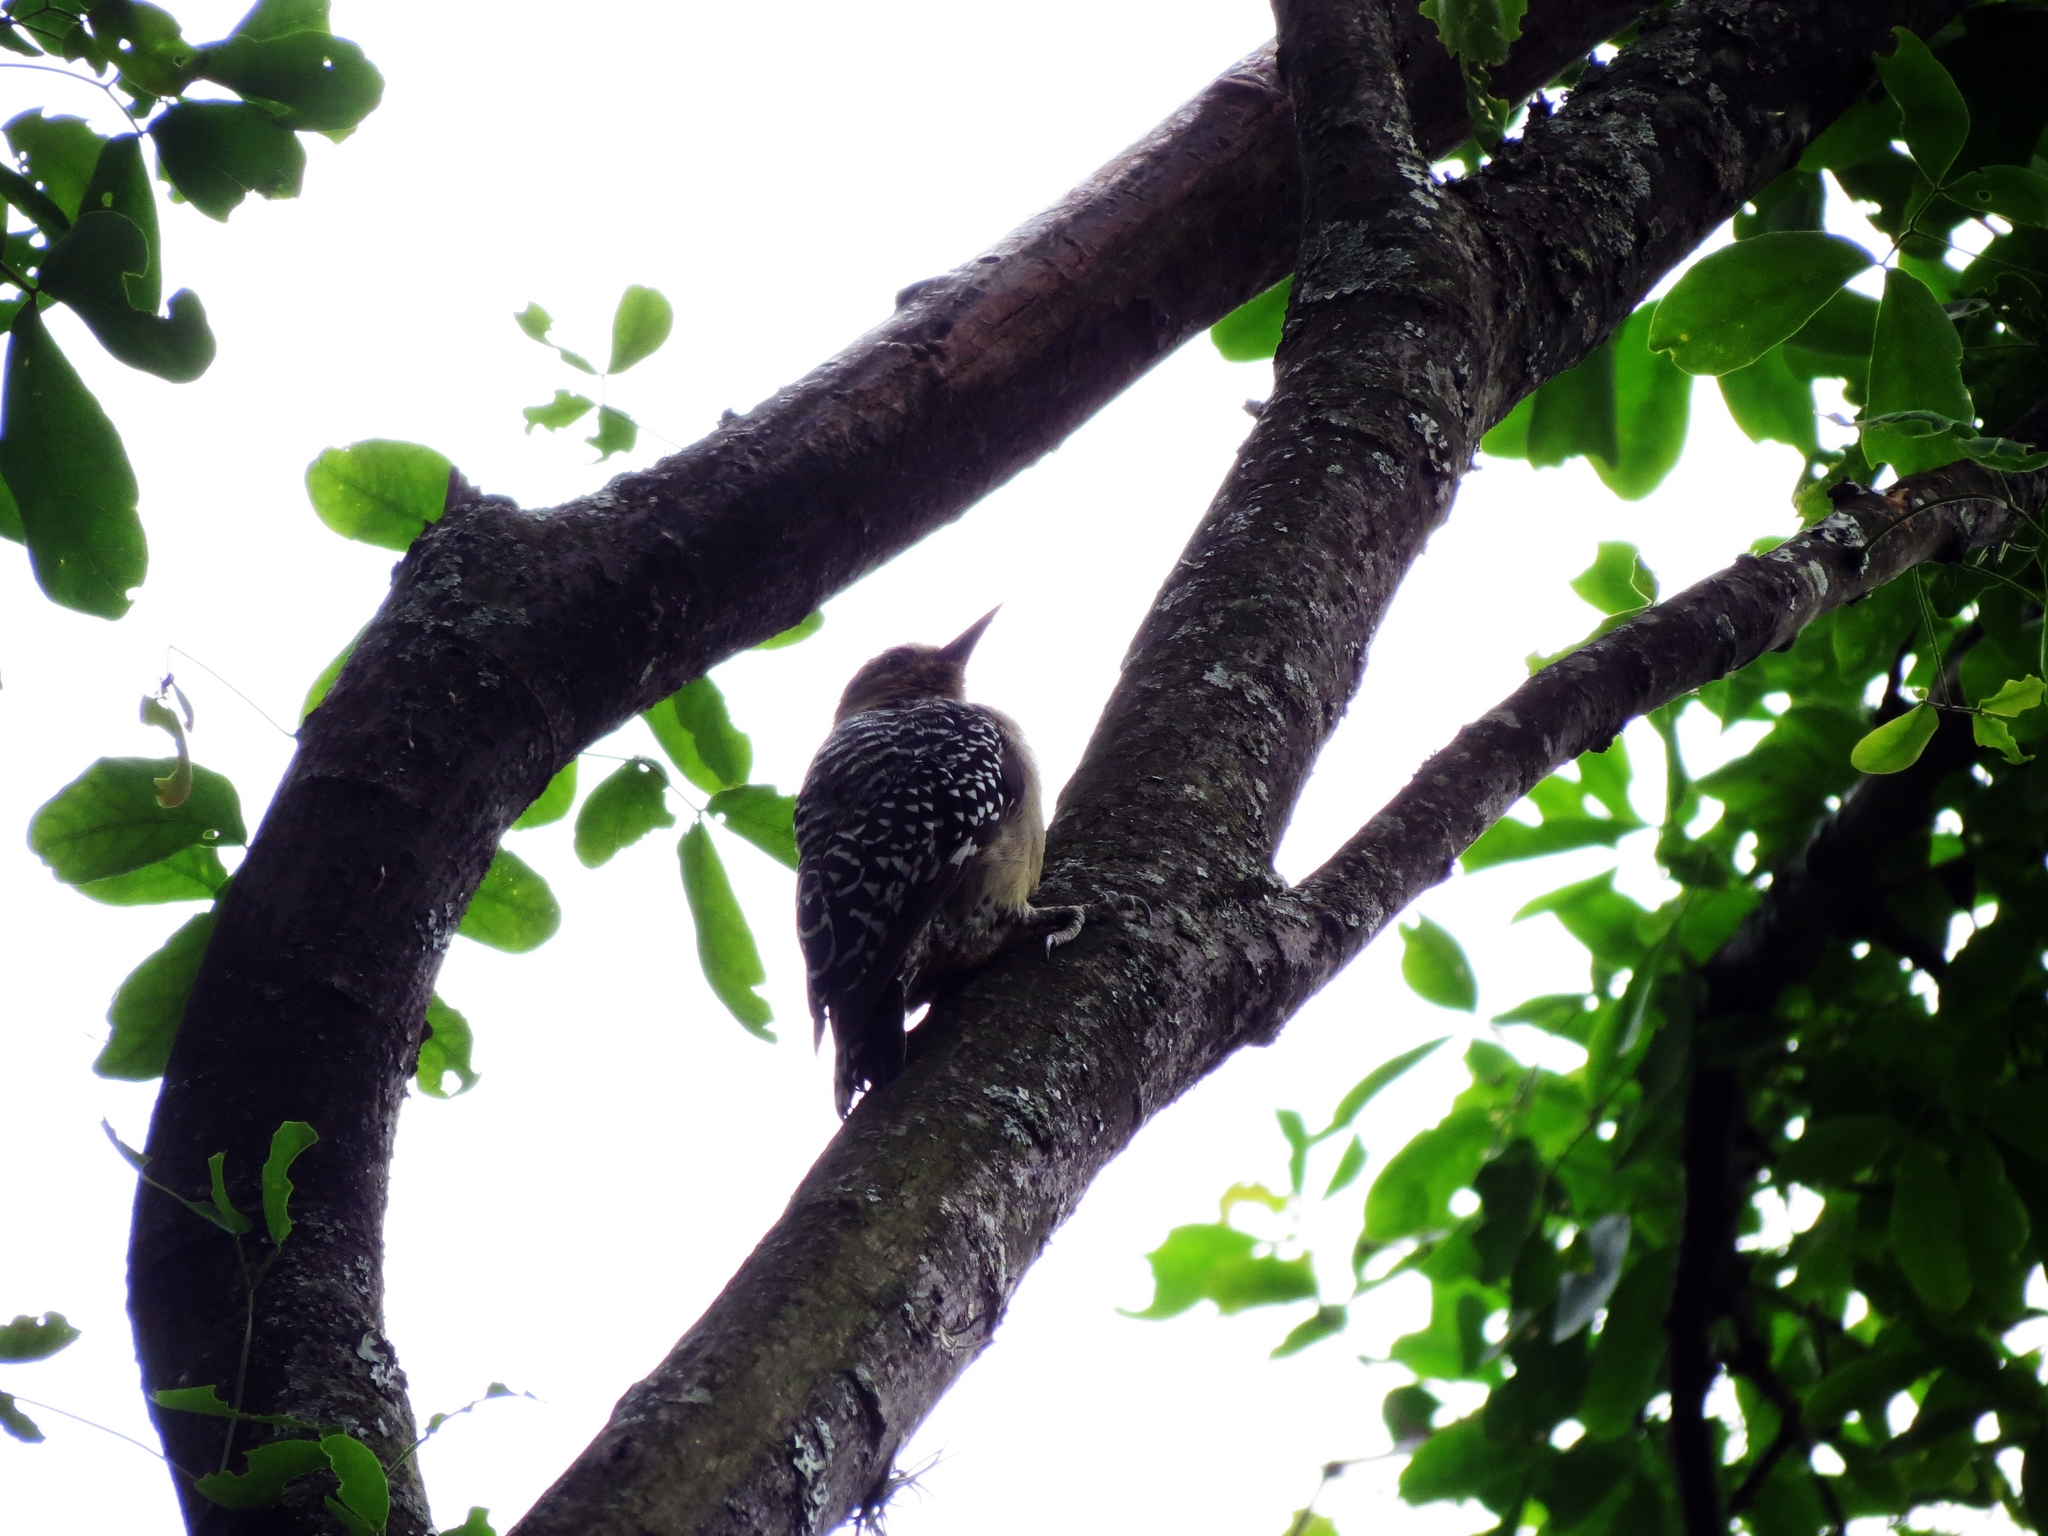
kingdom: Animalia
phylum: Chordata
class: Aves
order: Piciformes
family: Picidae
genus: Melanerpes
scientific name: Melanerpes rubricapillus
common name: Red-crowned woodpecker
